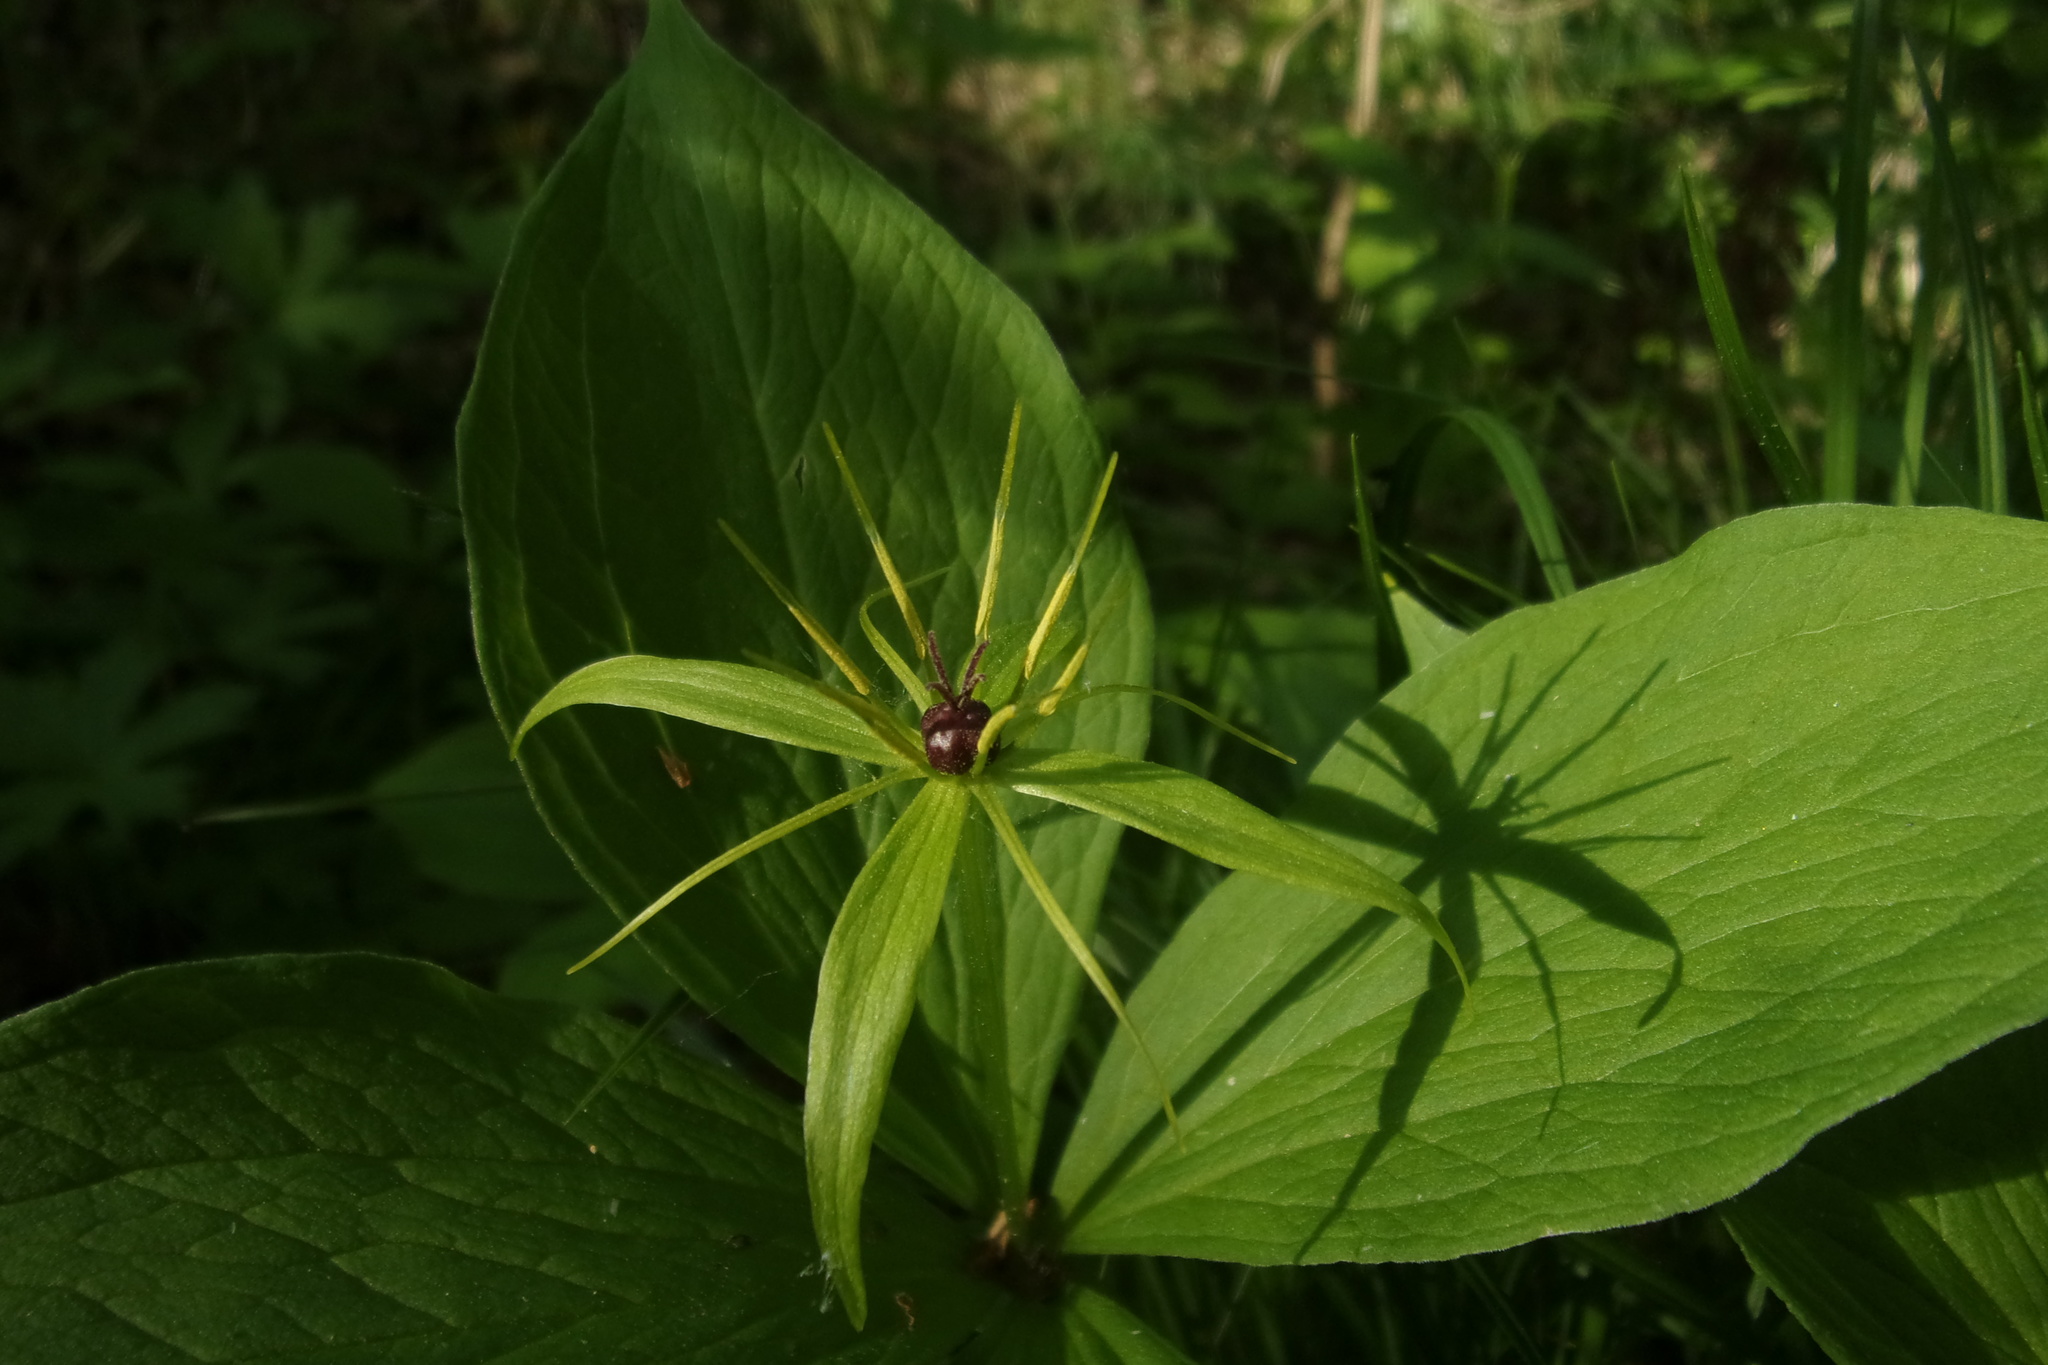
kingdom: Plantae
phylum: Tracheophyta
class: Liliopsida
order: Liliales
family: Melanthiaceae
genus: Paris
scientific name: Paris quadrifolia
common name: Herb-paris
